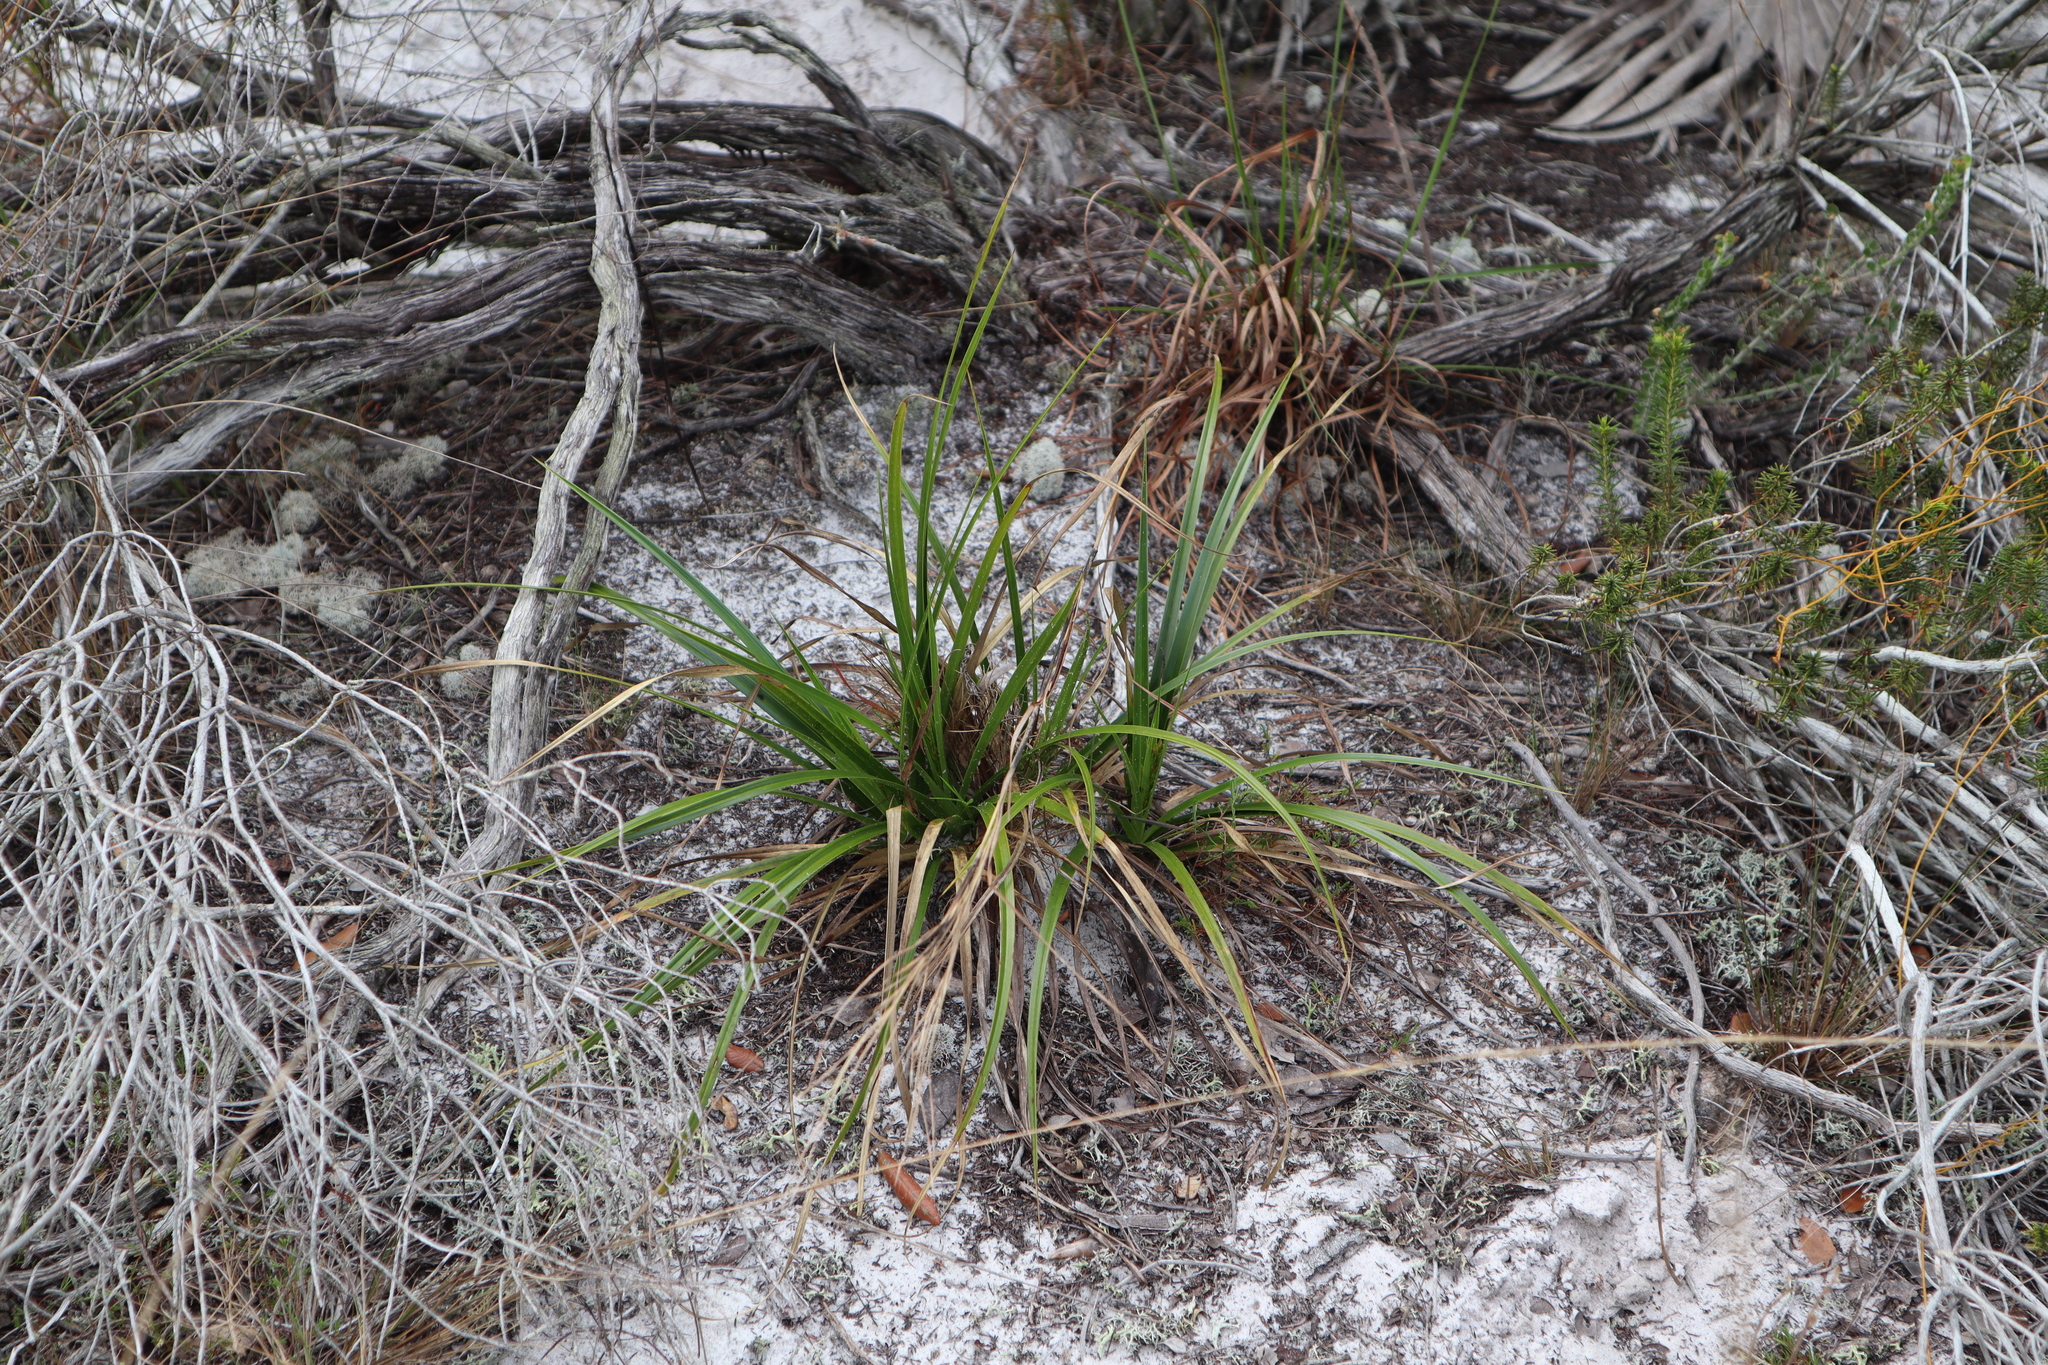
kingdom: Plantae
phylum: Tracheophyta
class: Liliopsida
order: Poales
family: Cyperaceae
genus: Rhynchospora
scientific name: Rhynchospora megalocarpa
